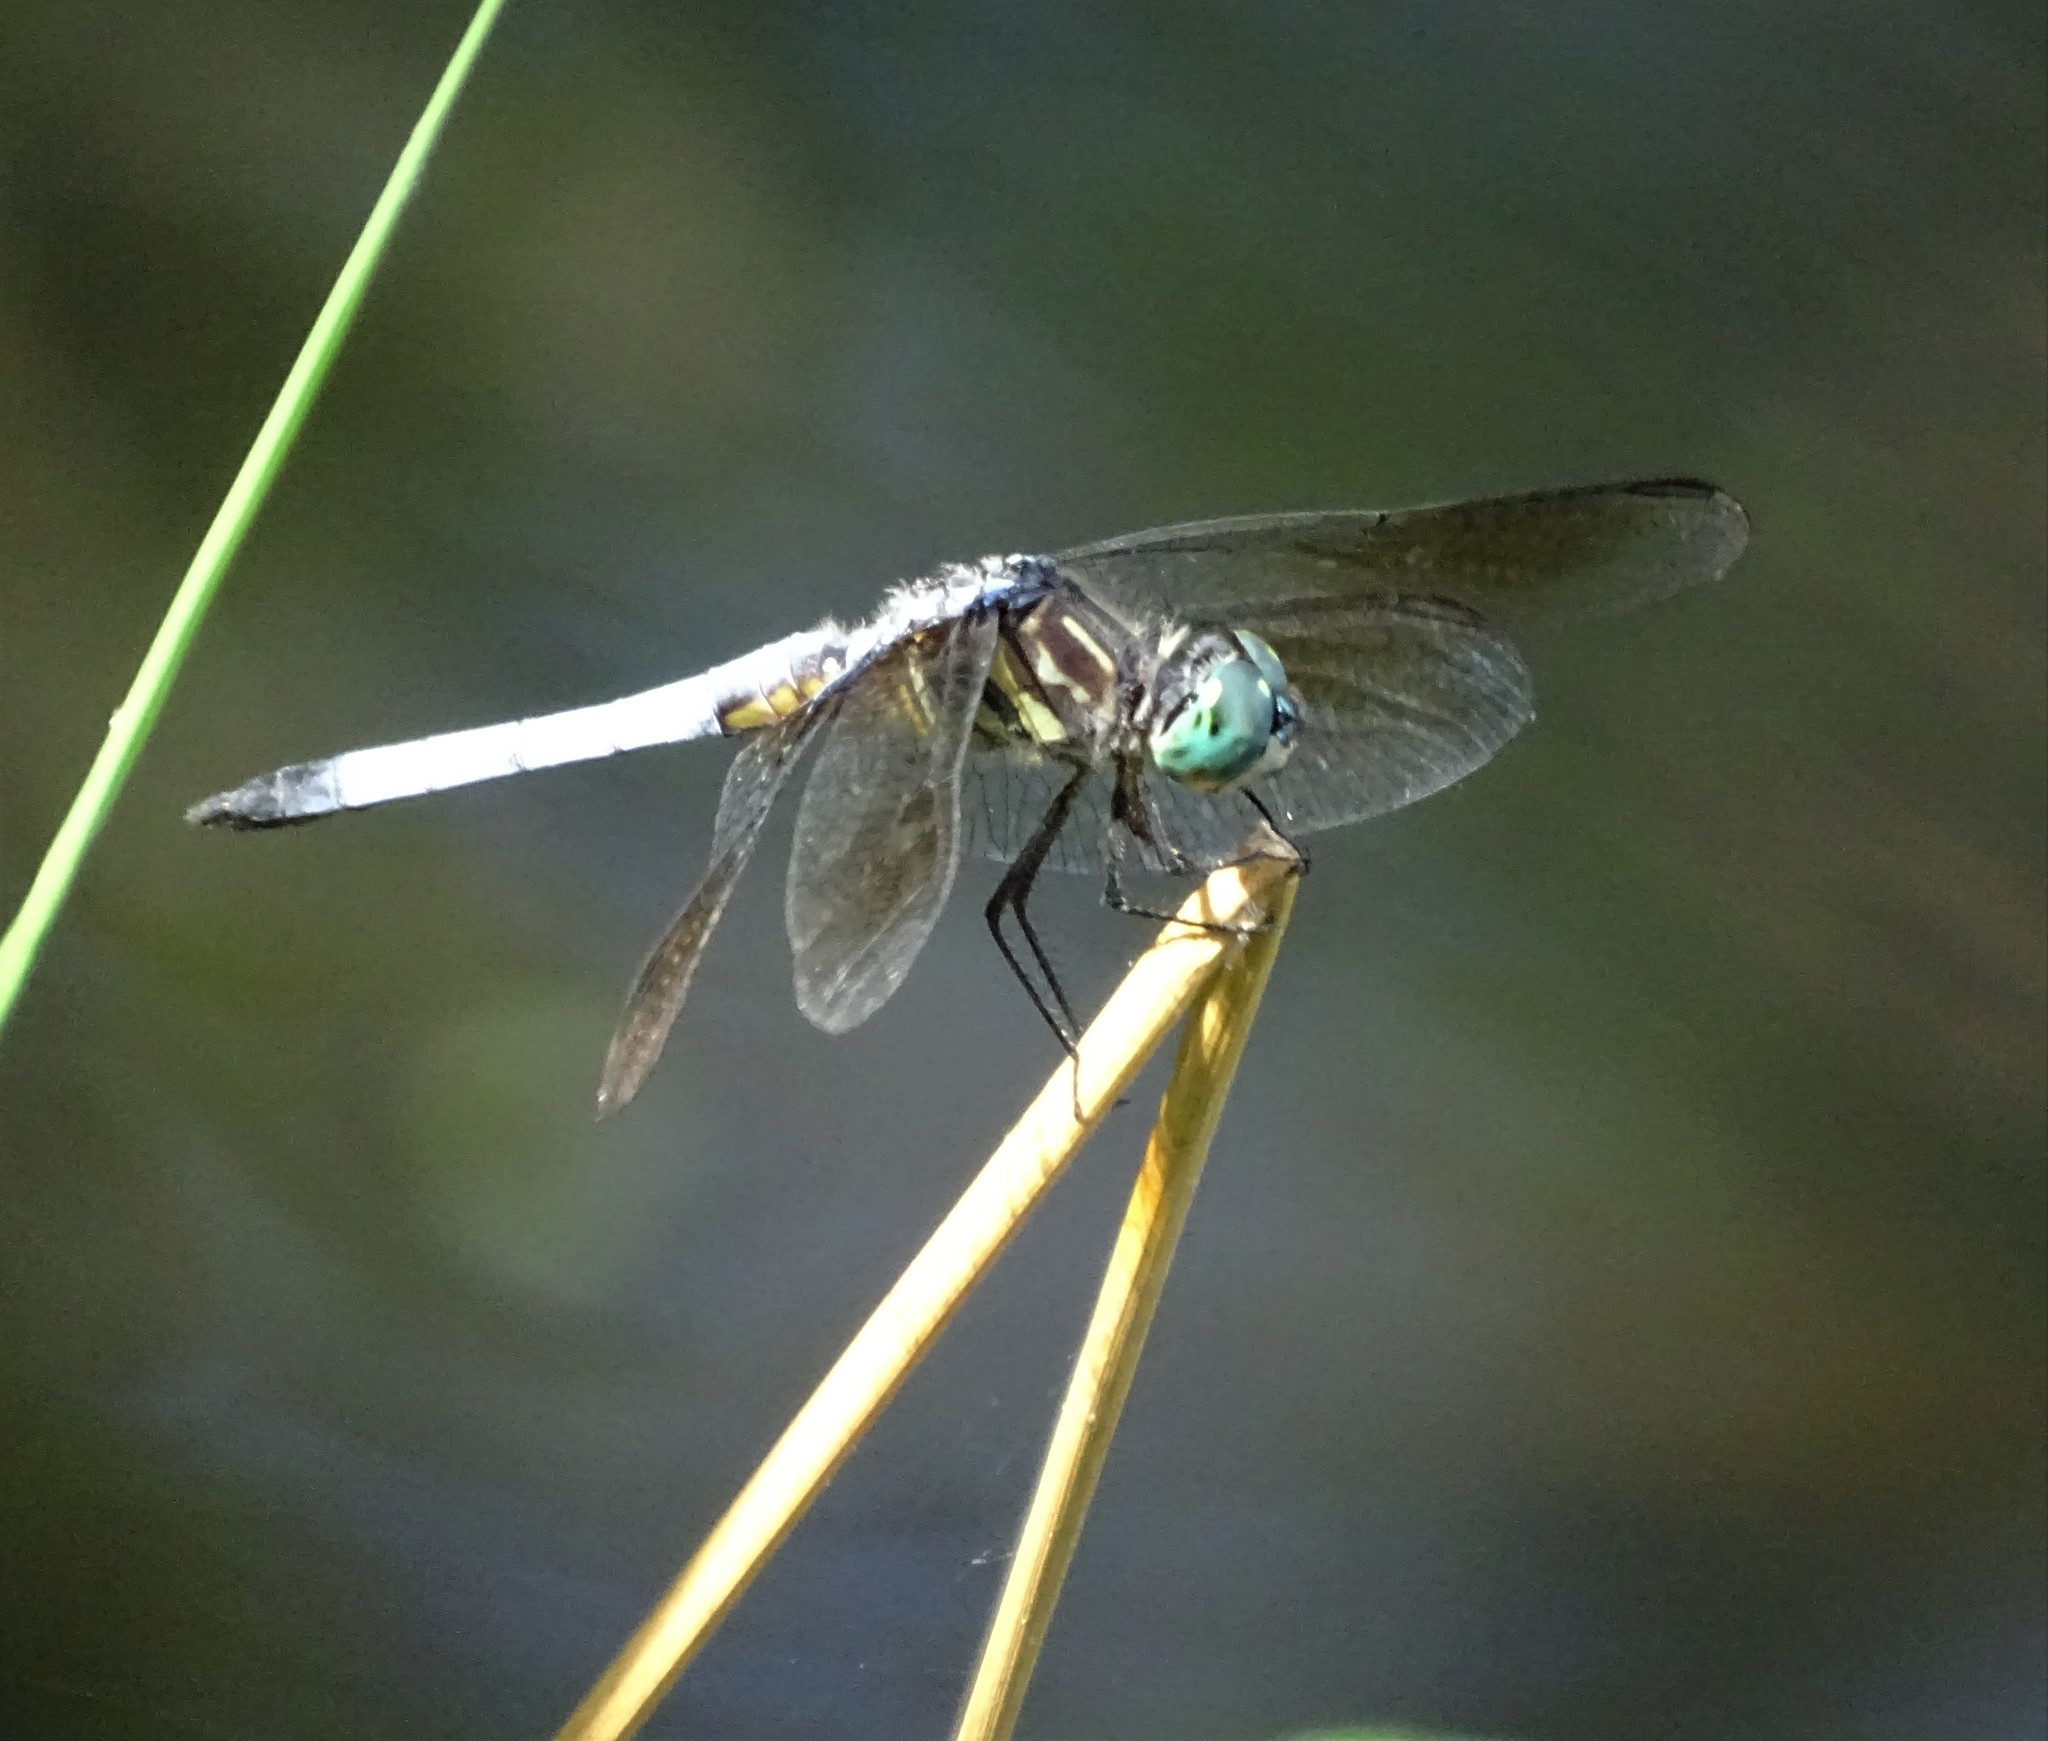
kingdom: Animalia
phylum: Arthropoda
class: Insecta
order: Odonata
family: Libellulidae
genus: Pachydiplax
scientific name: Pachydiplax longipennis
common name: Blue dasher
